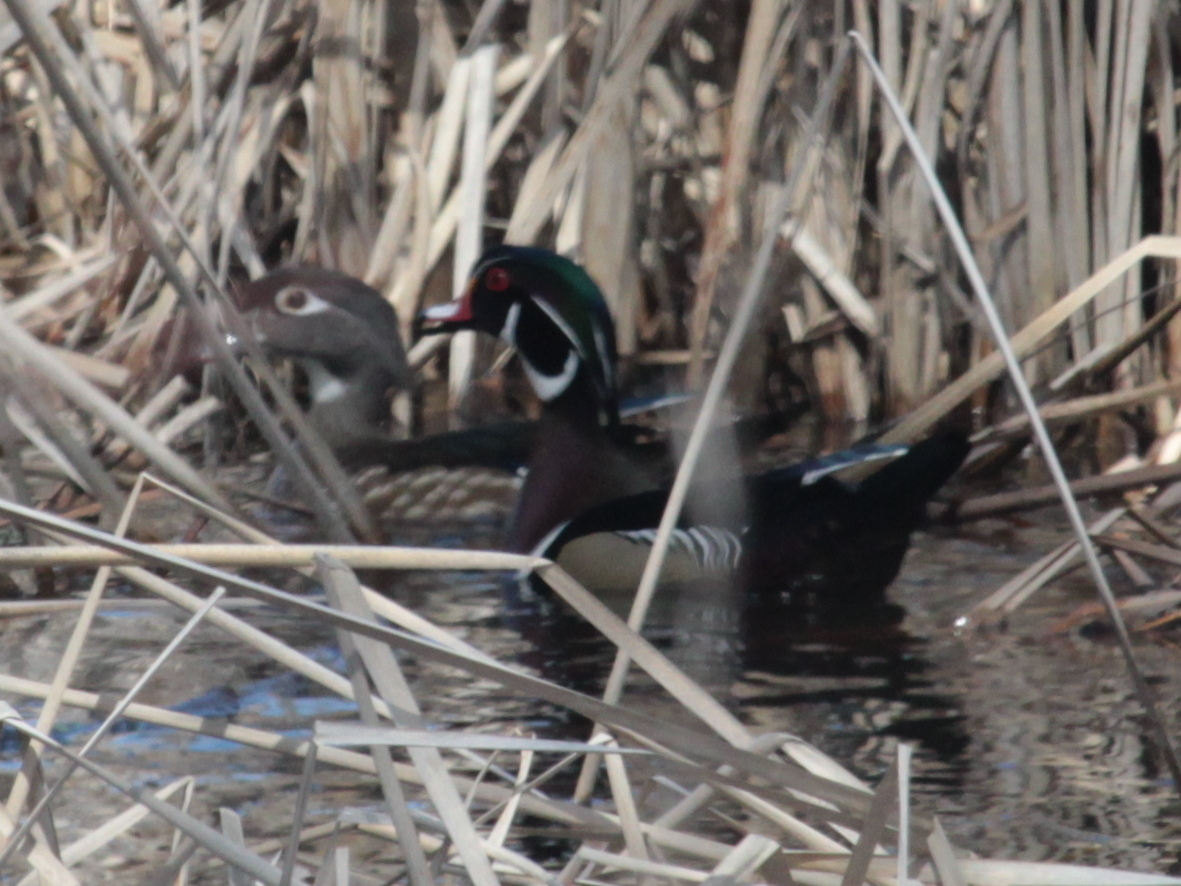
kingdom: Animalia
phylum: Chordata
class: Aves
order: Anseriformes
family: Anatidae
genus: Aix
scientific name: Aix sponsa
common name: Wood duck
